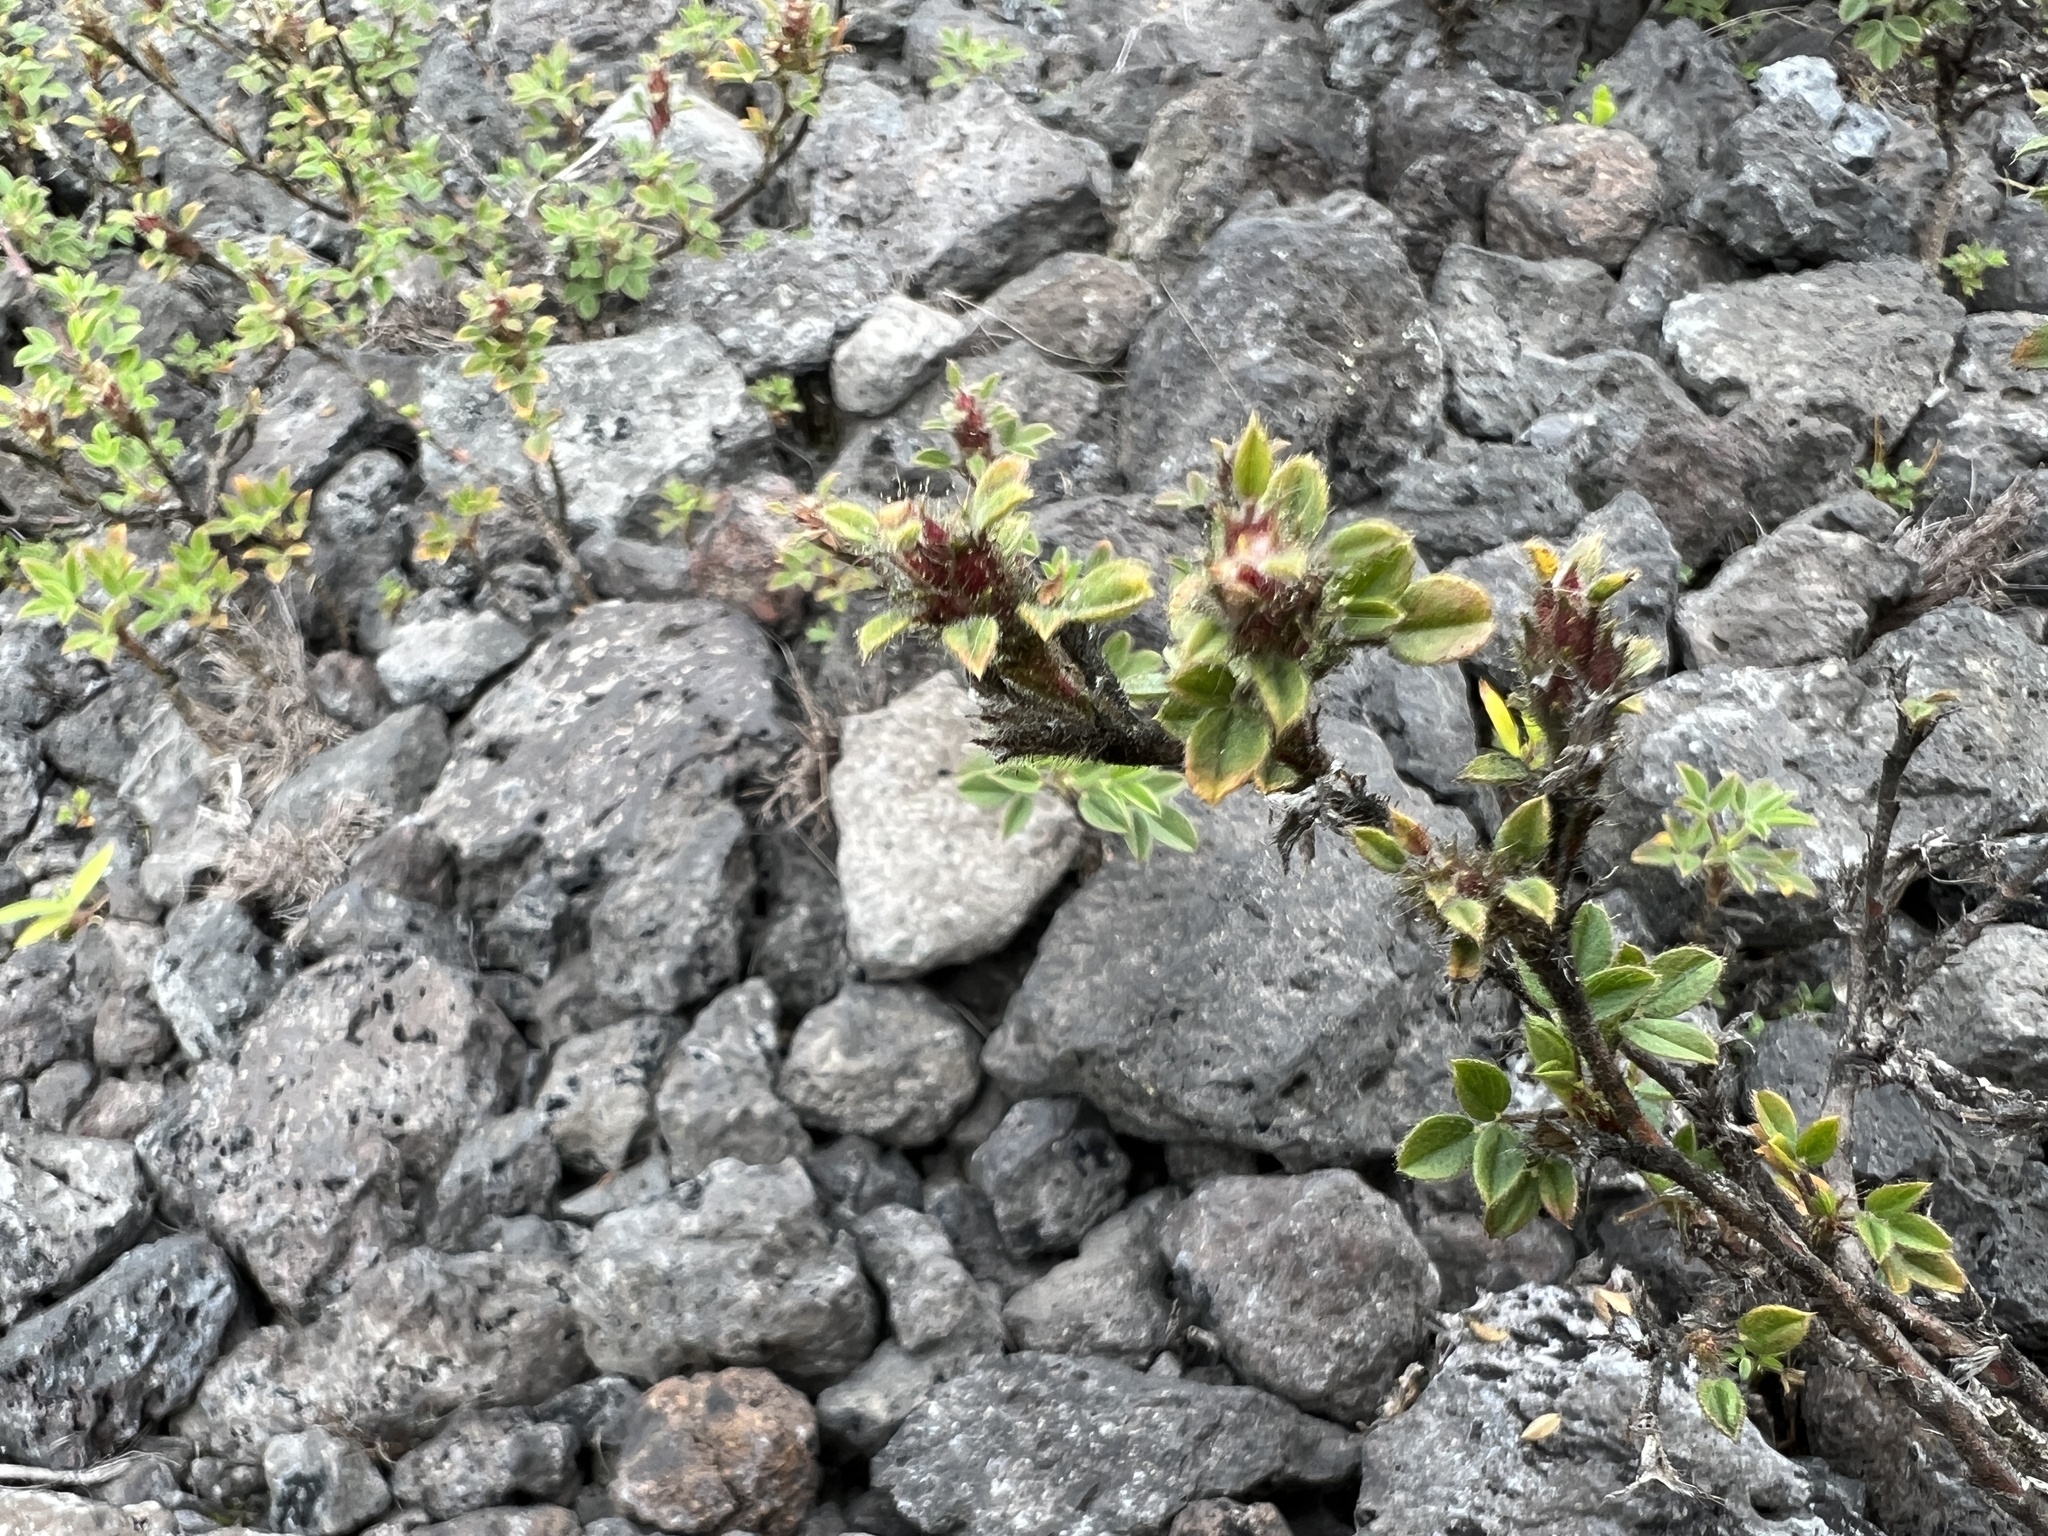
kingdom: Plantae
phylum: Tracheophyta
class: Magnoliopsida
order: Fabales
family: Fabaceae
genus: Stylosanthes
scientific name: Stylosanthes viscosa
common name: Viscid pencil-flower
